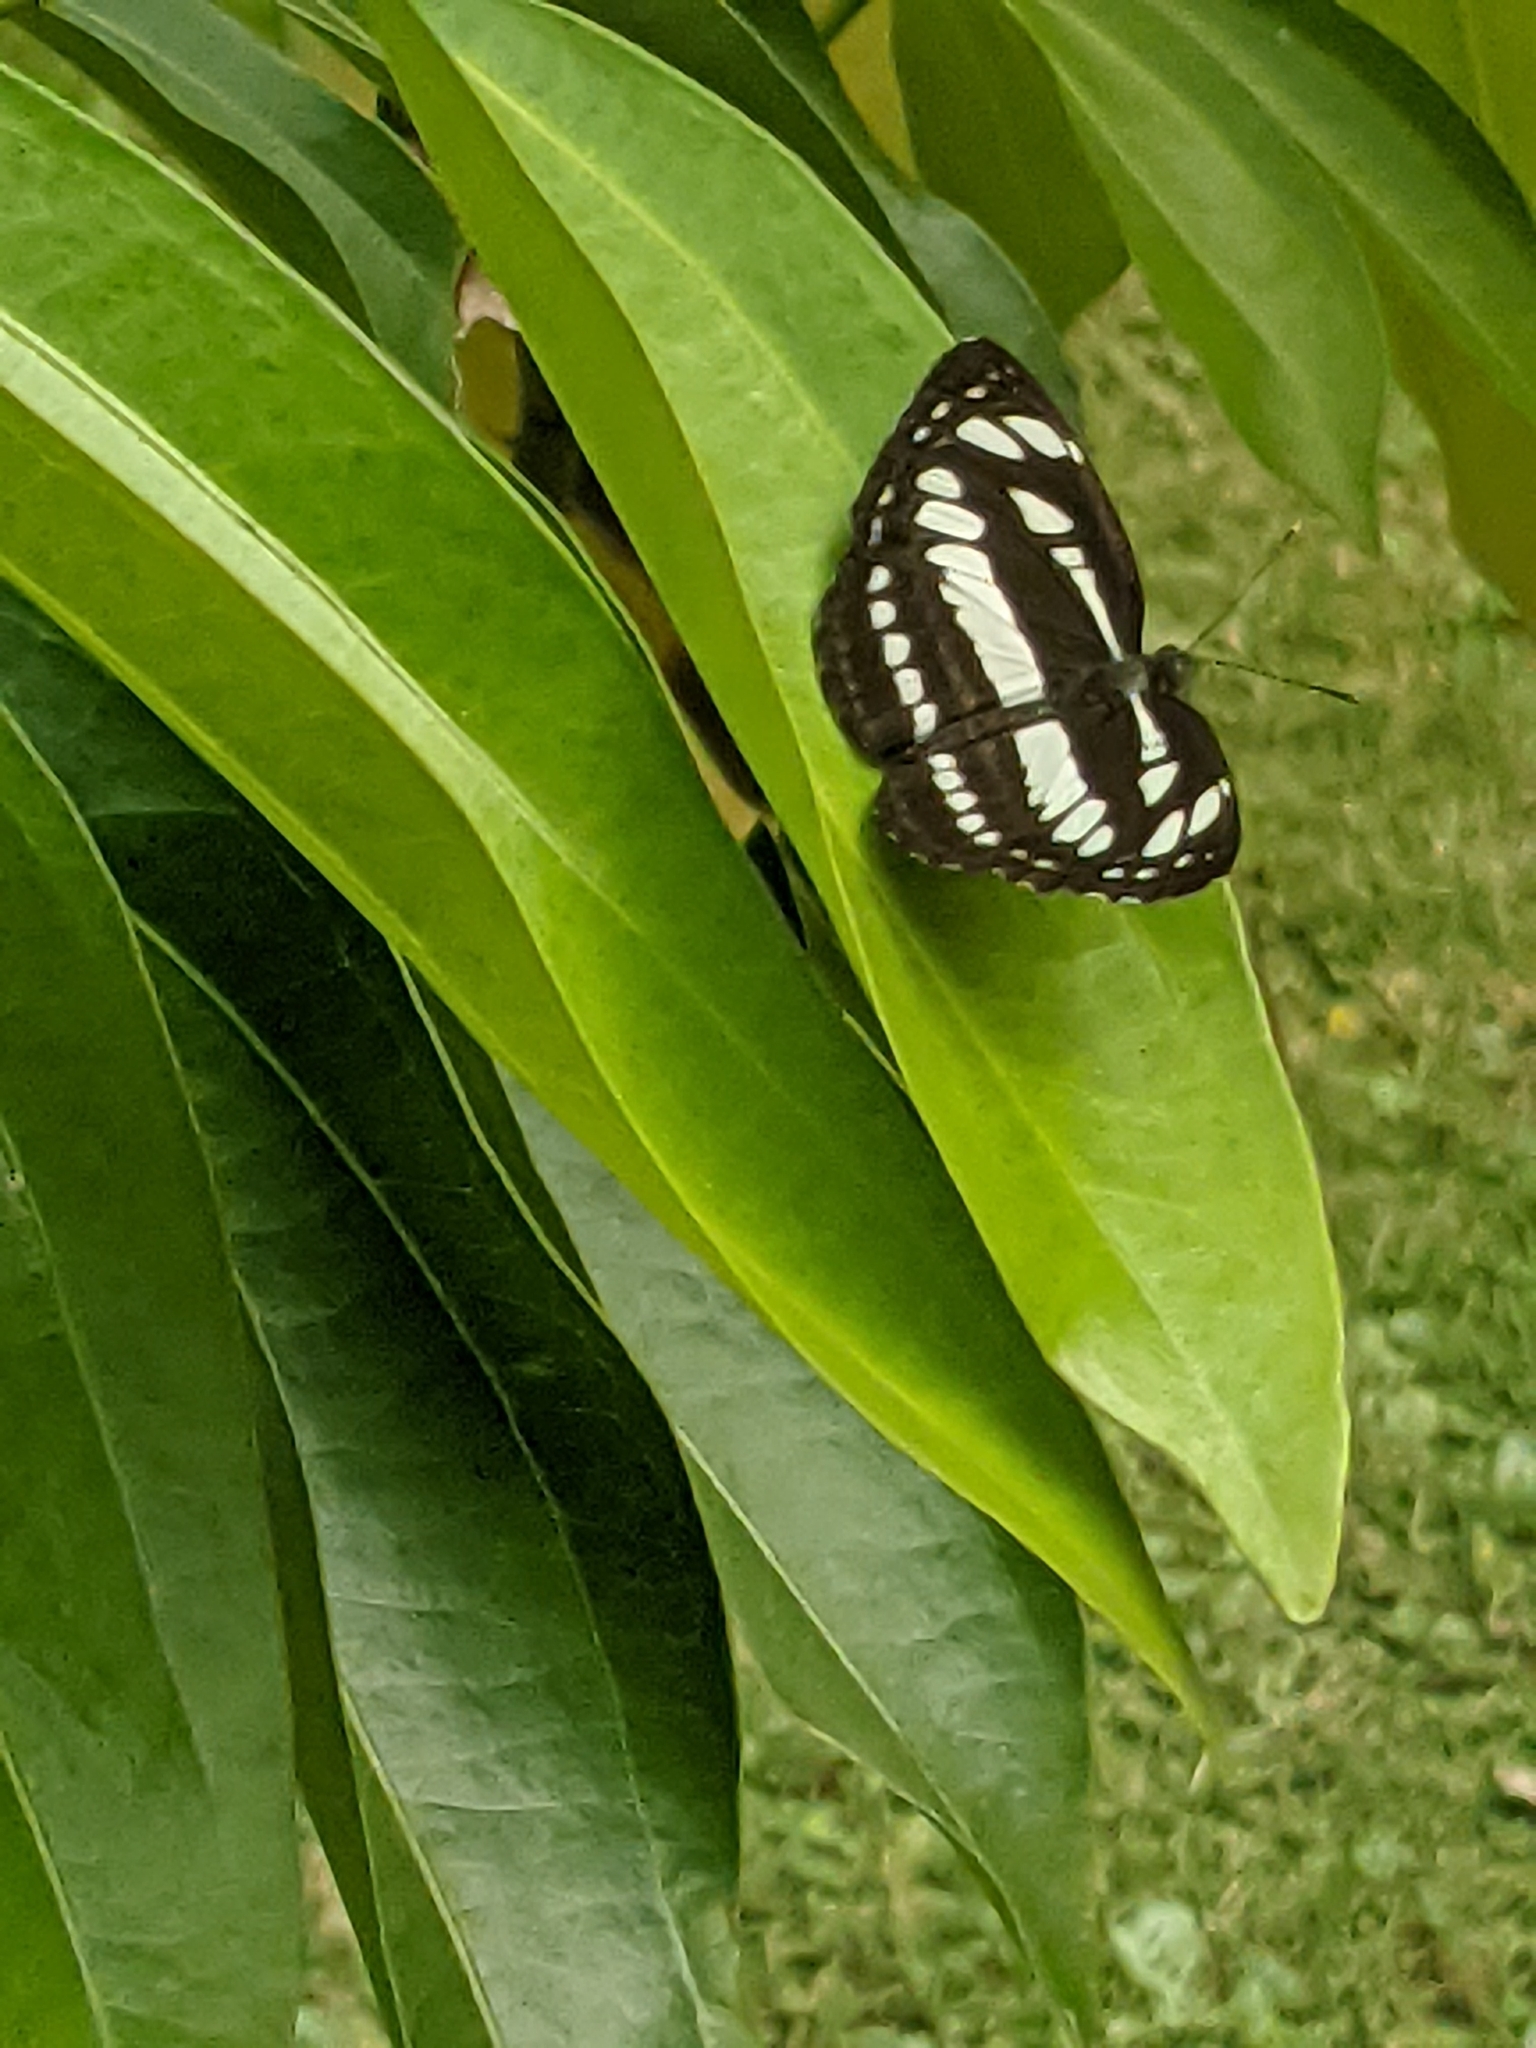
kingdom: Animalia
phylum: Arthropoda
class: Insecta
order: Lepidoptera
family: Nymphalidae
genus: Neptis
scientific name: Neptis hylas
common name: Common sailer
